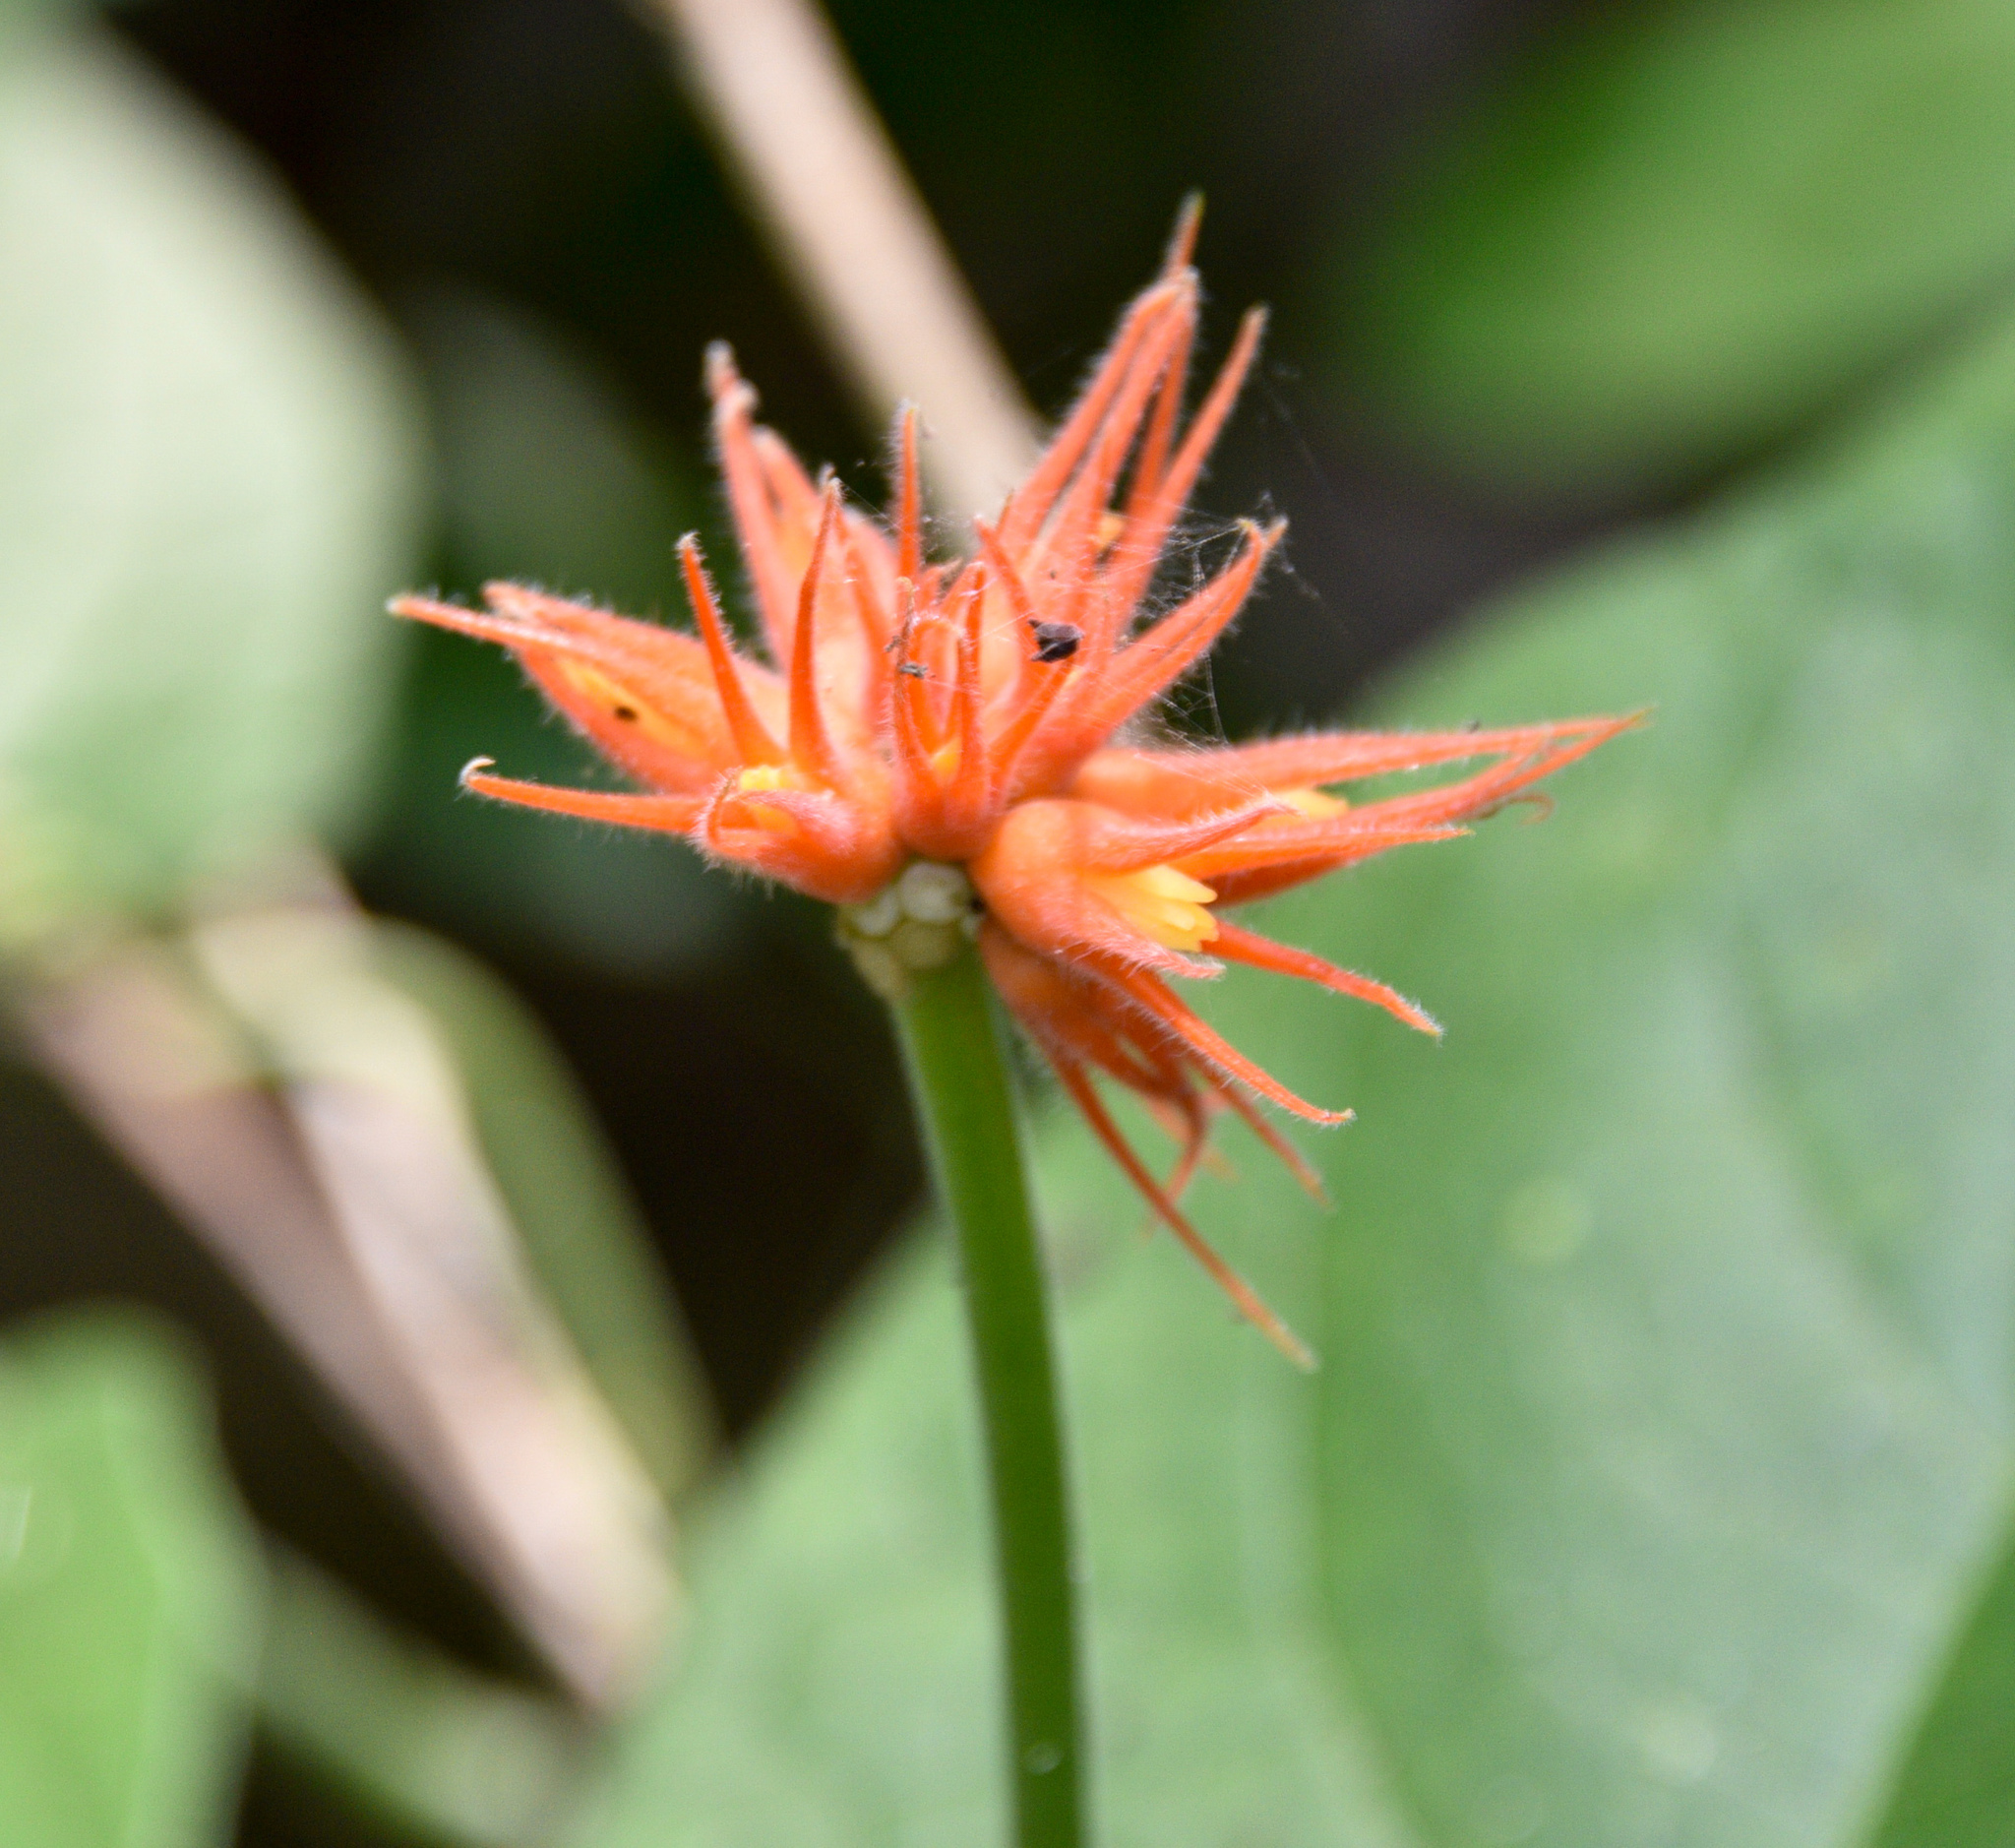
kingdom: Plantae
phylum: Tracheophyta
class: Magnoliopsida
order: Cucurbitales
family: Cucurbitaceae
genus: Gurania
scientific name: Gurania makoyana
